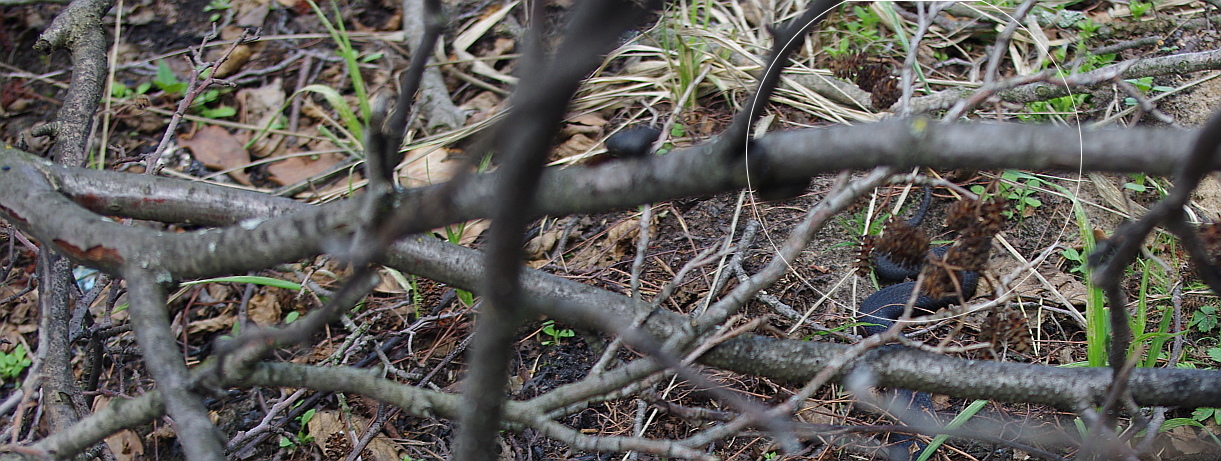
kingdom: Plantae
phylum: Tracheophyta
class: Magnoliopsida
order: Fagales
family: Betulaceae
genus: Alnus
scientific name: Alnus incana
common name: Grey alder
